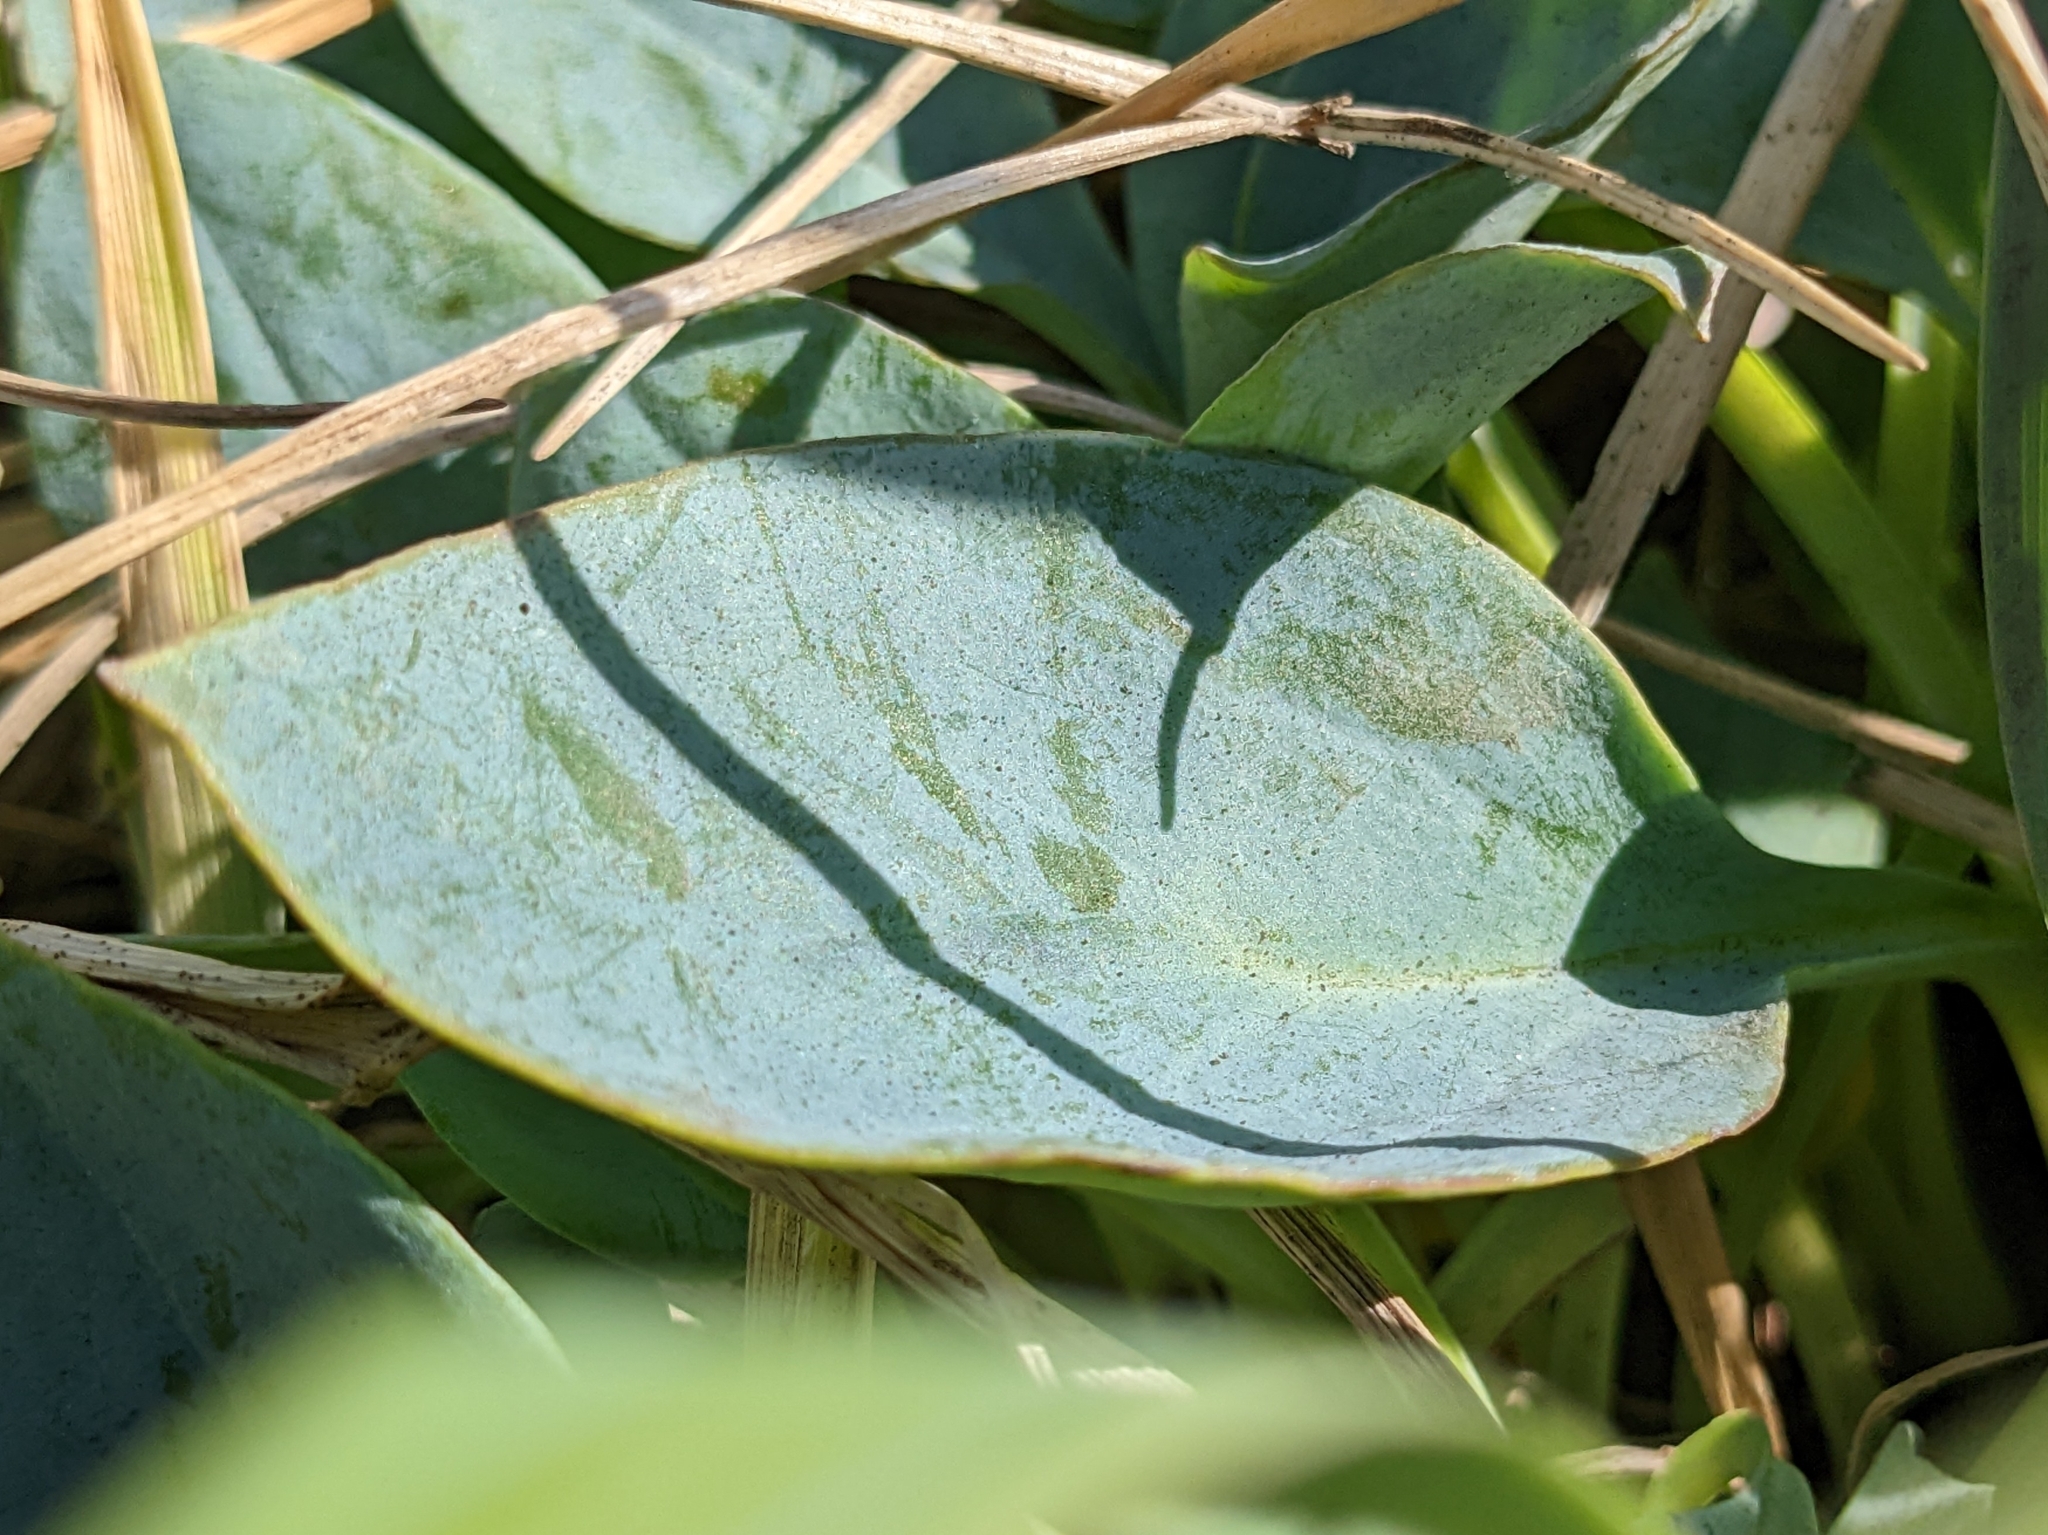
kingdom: Plantae
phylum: Tracheophyta
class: Magnoliopsida
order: Boraginales
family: Boraginaceae
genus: Mertensia
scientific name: Mertensia maritima
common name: Oysterplant
